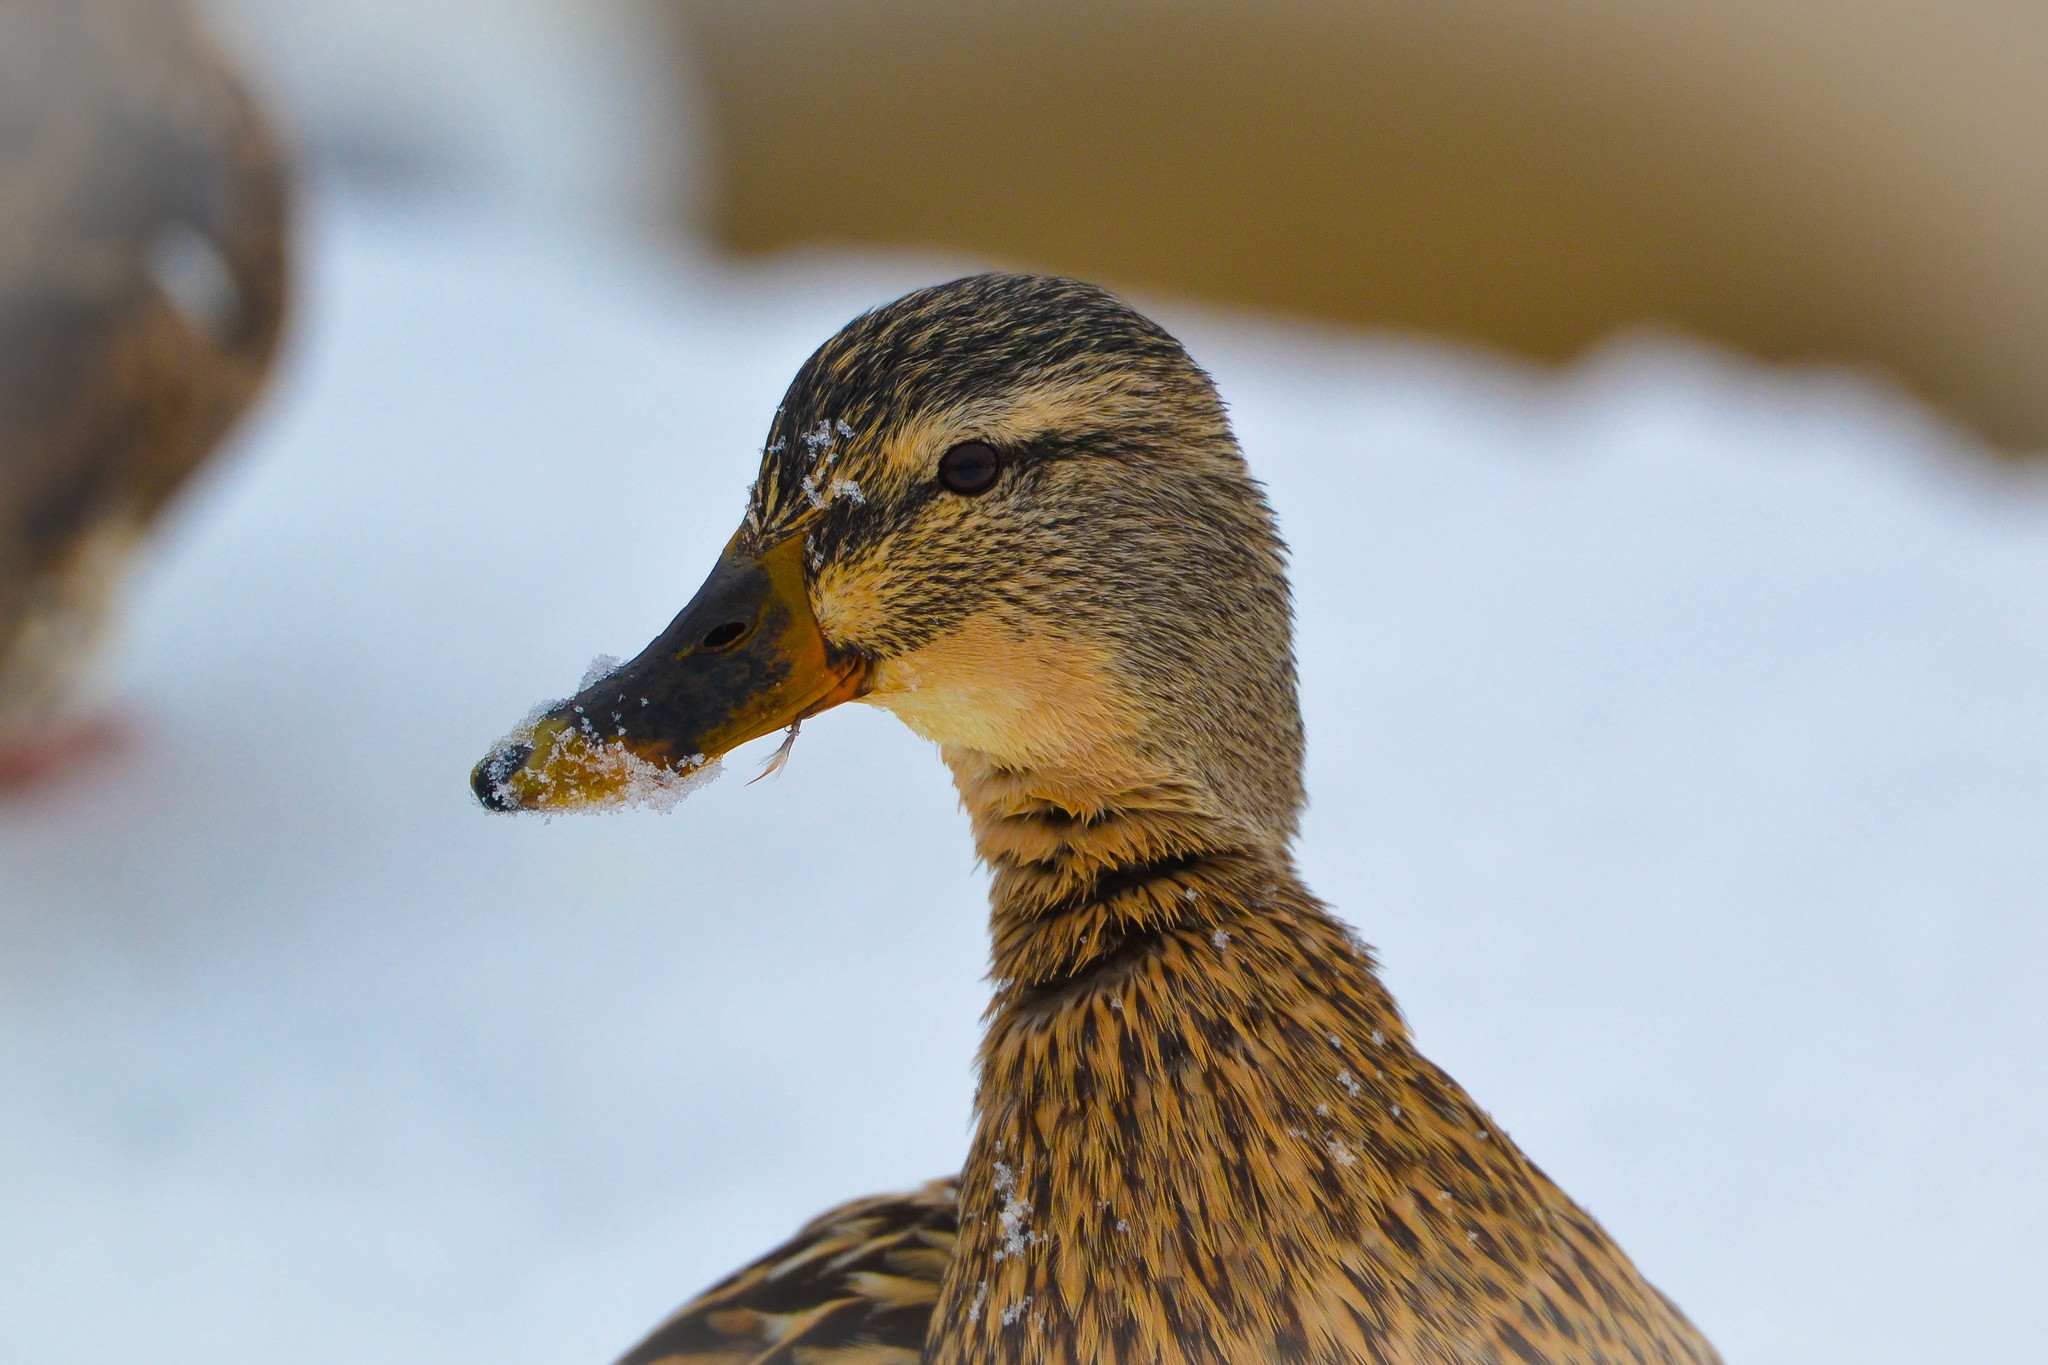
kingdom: Animalia
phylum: Chordata
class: Aves
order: Anseriformes
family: Anatidae
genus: Anas
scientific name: Anas platyrhynchos
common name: Mallard
